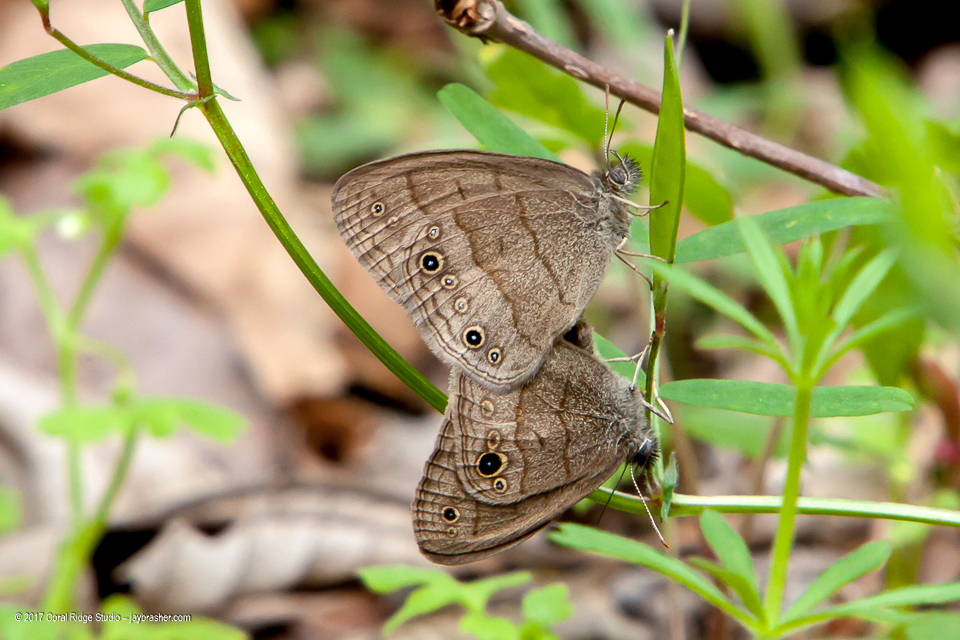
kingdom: Animalia
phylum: Arthropoda
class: Insecta
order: Lepidoptera
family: Nymphalidae
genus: Hermeuptychia
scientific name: Hermeuptychia hermes
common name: Hermes satyr
